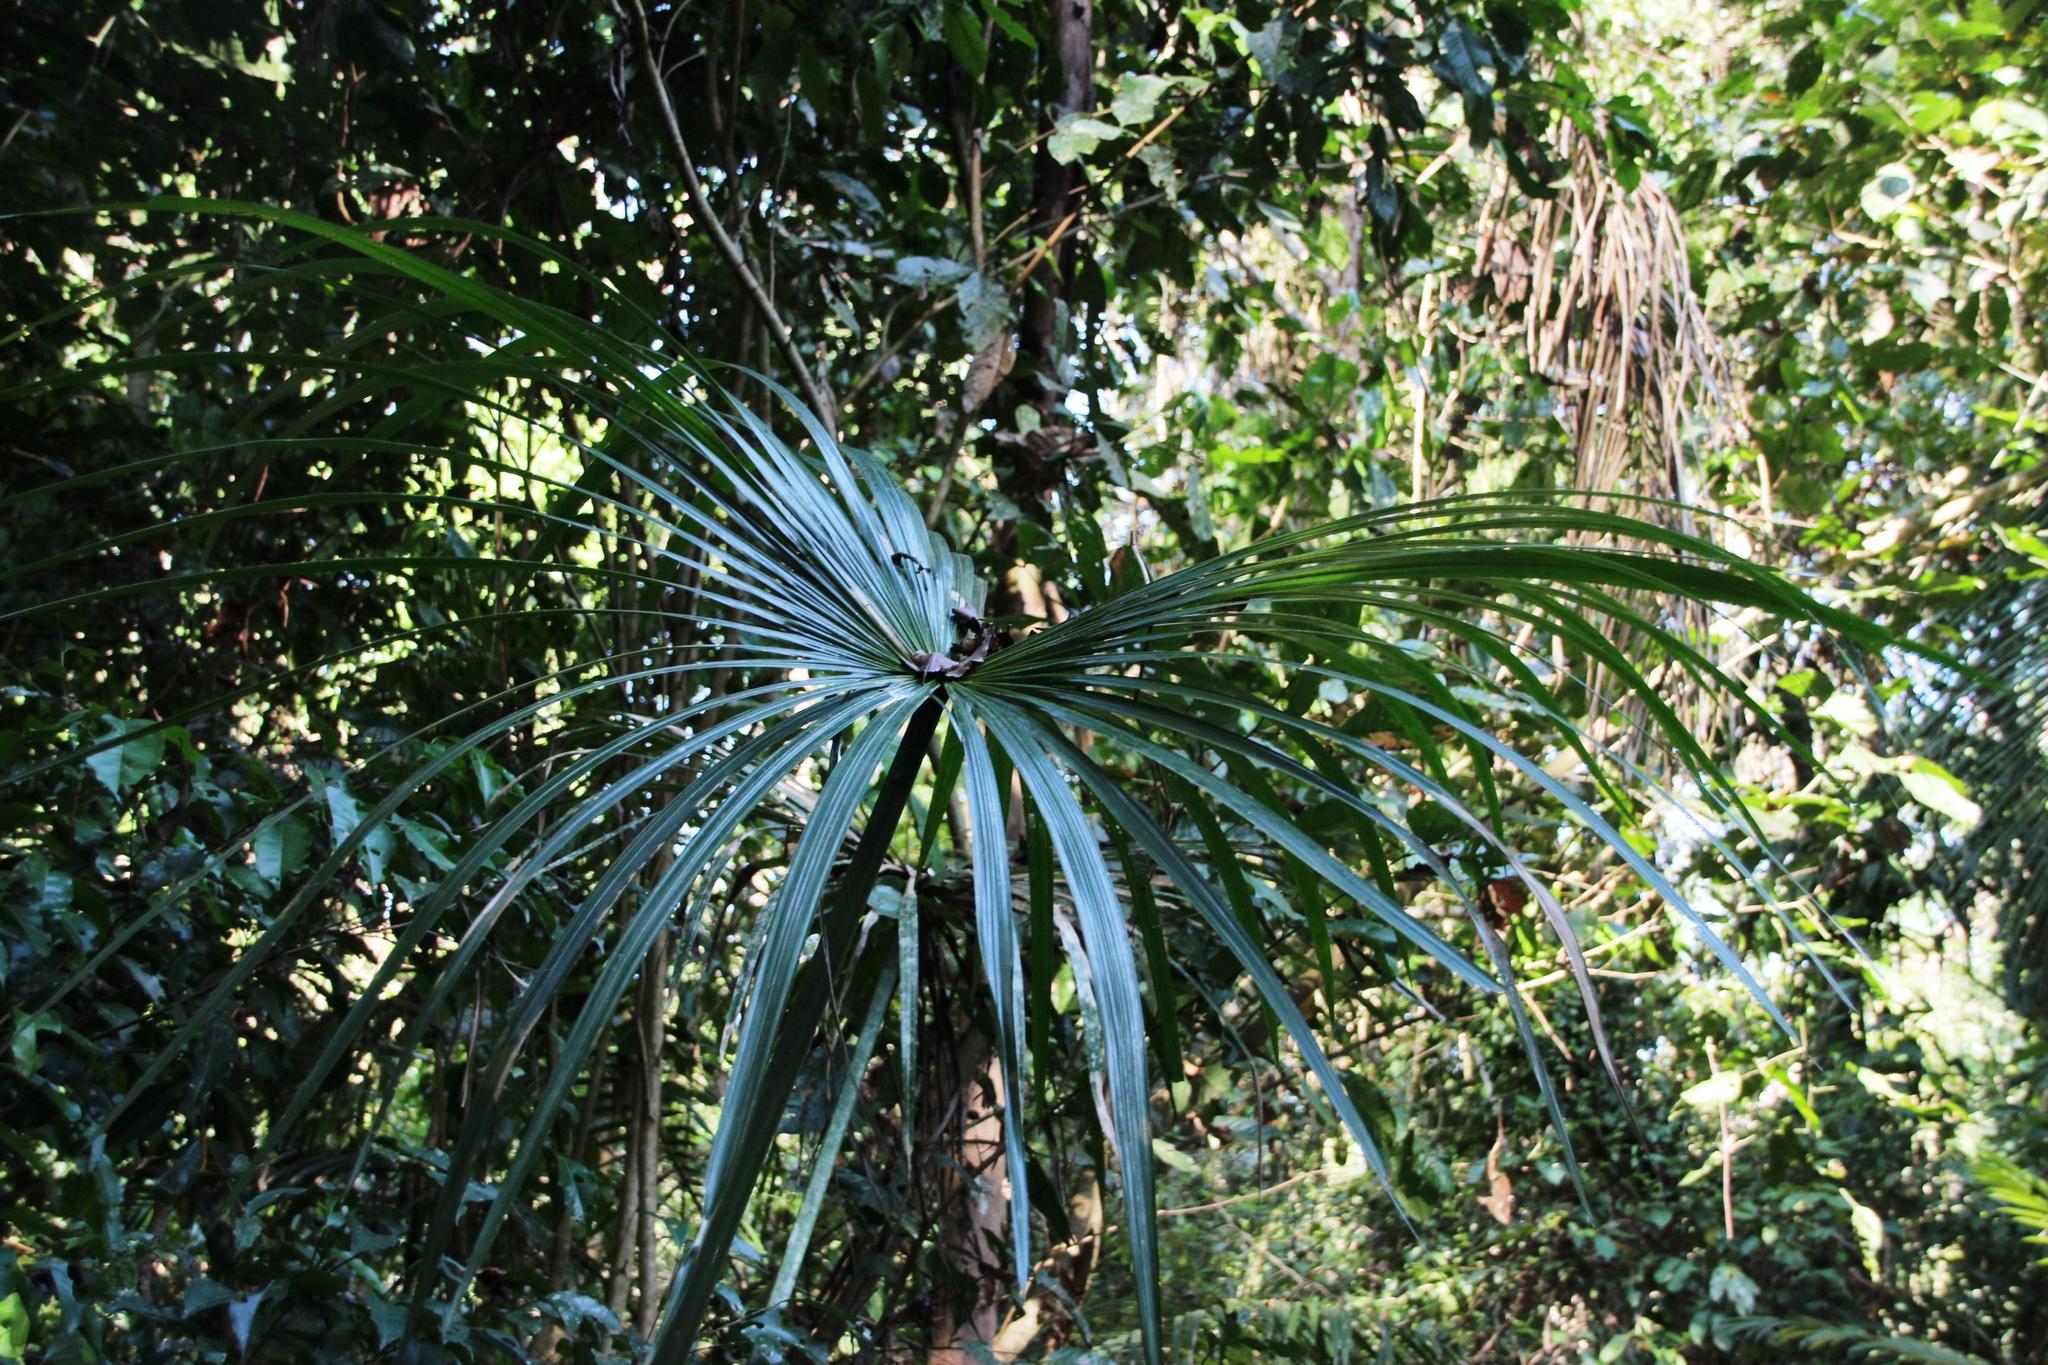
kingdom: Plantae
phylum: Tracheophyta
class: Liliopsida
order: Pandanales
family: Cyclanthaceae
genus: Carludovica
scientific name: Carludovica palmata
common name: Panama hat plant
